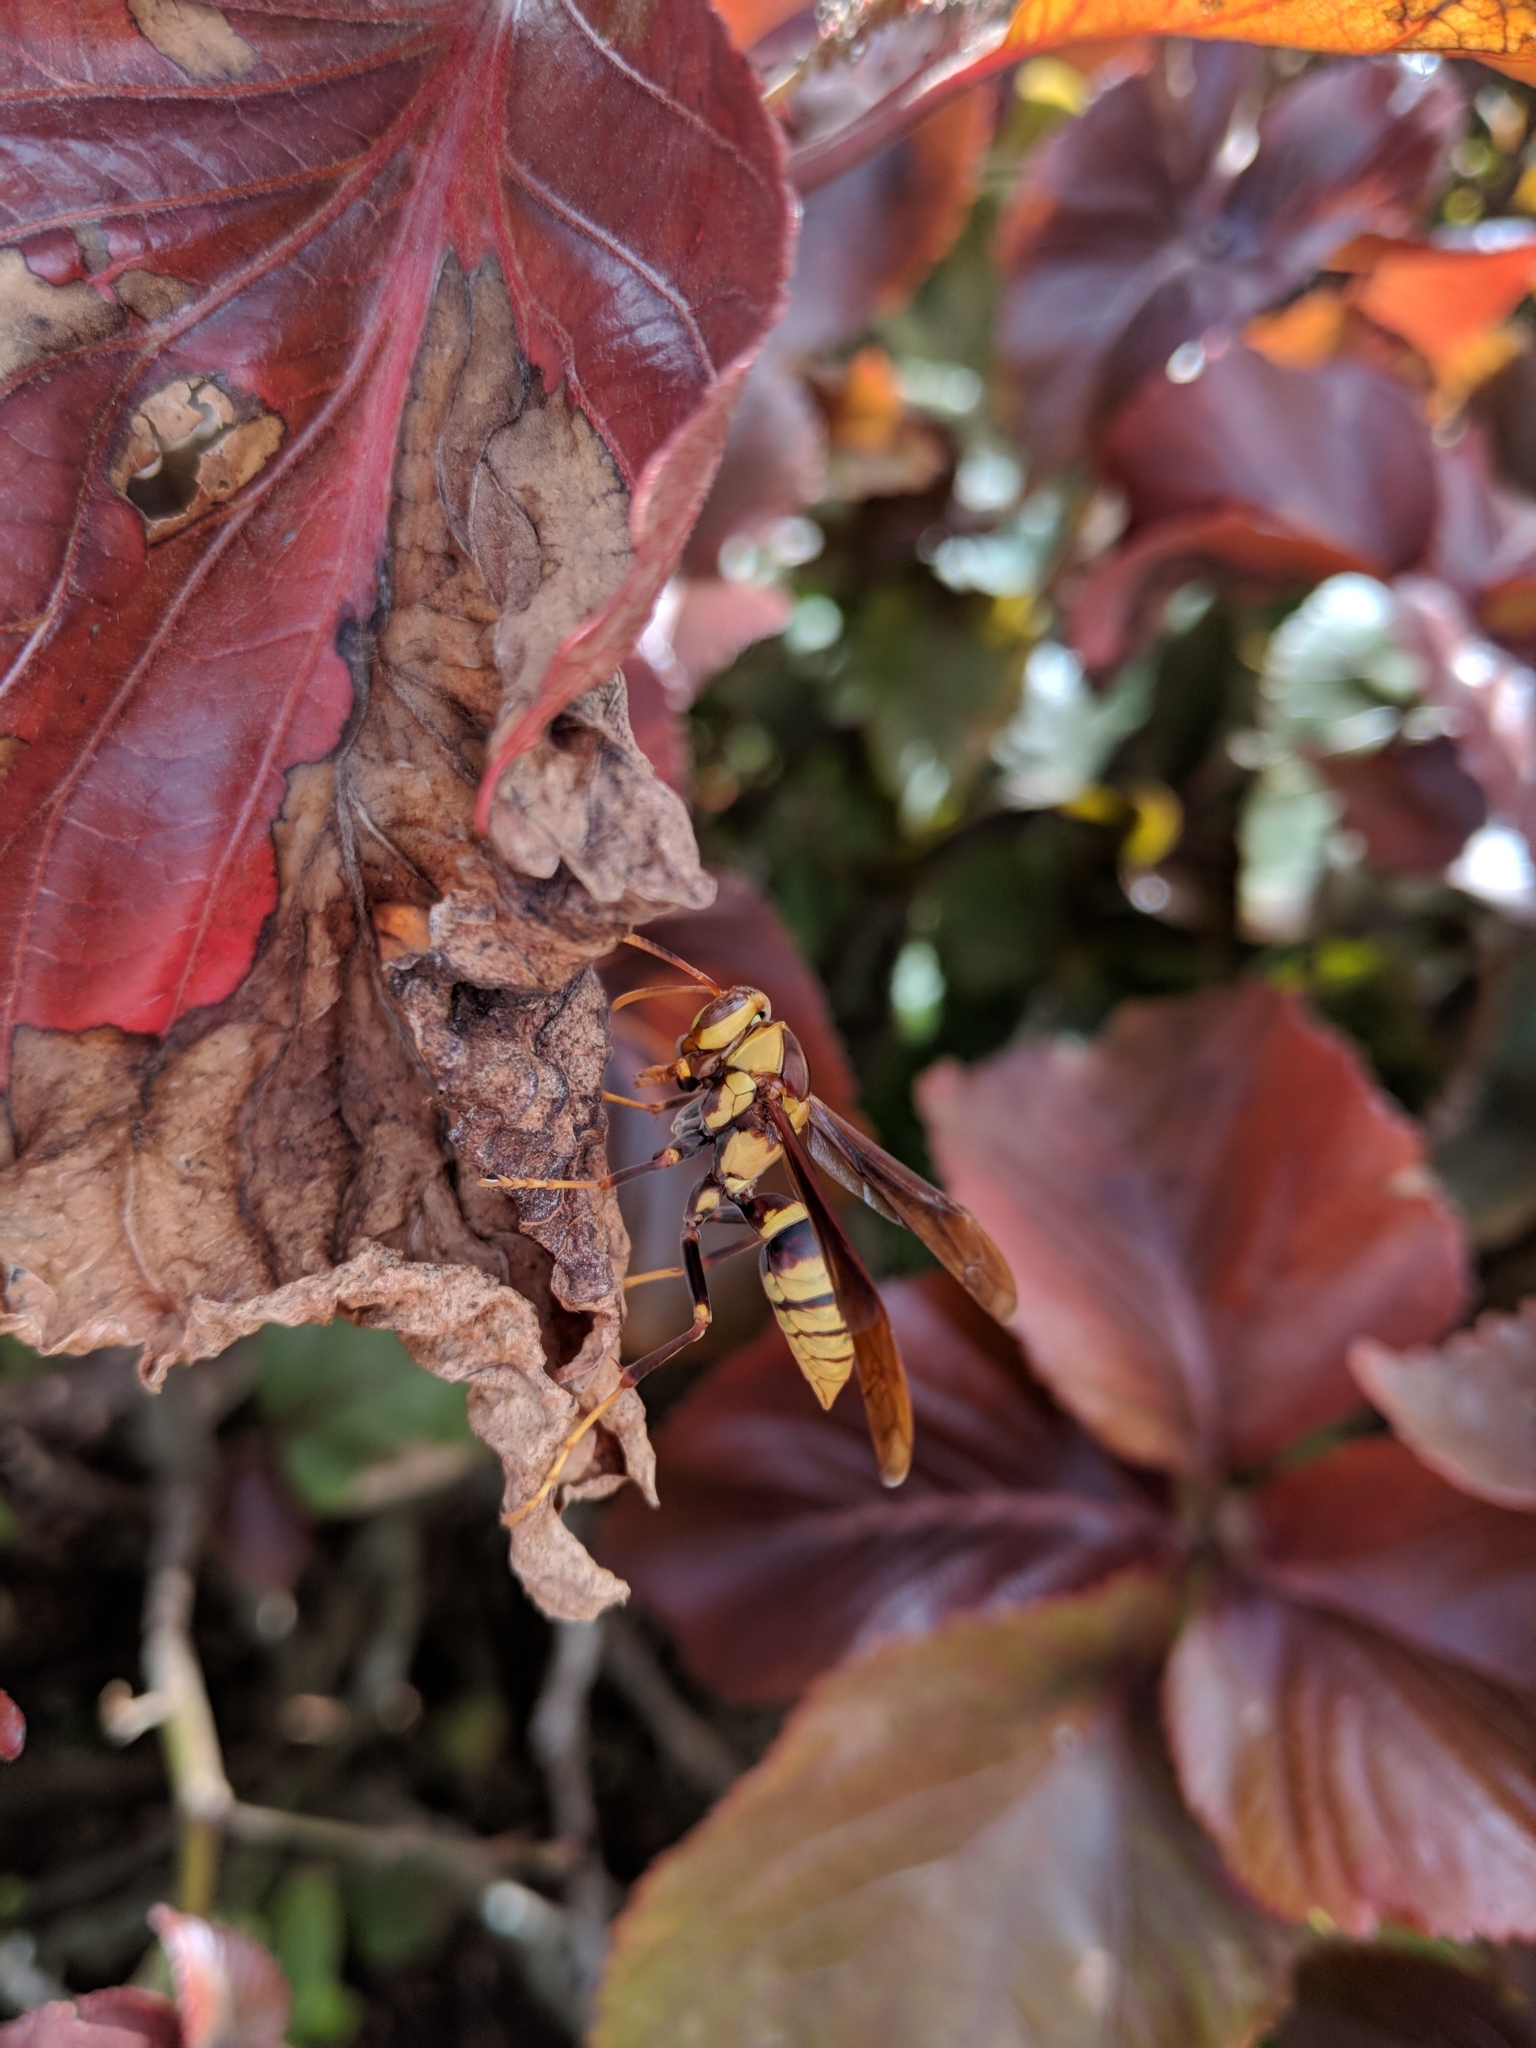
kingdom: Animalia
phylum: Arthropoda
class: Insecta
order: Hymenoptera
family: Eumenidae
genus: Polistes
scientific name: Polistes major
